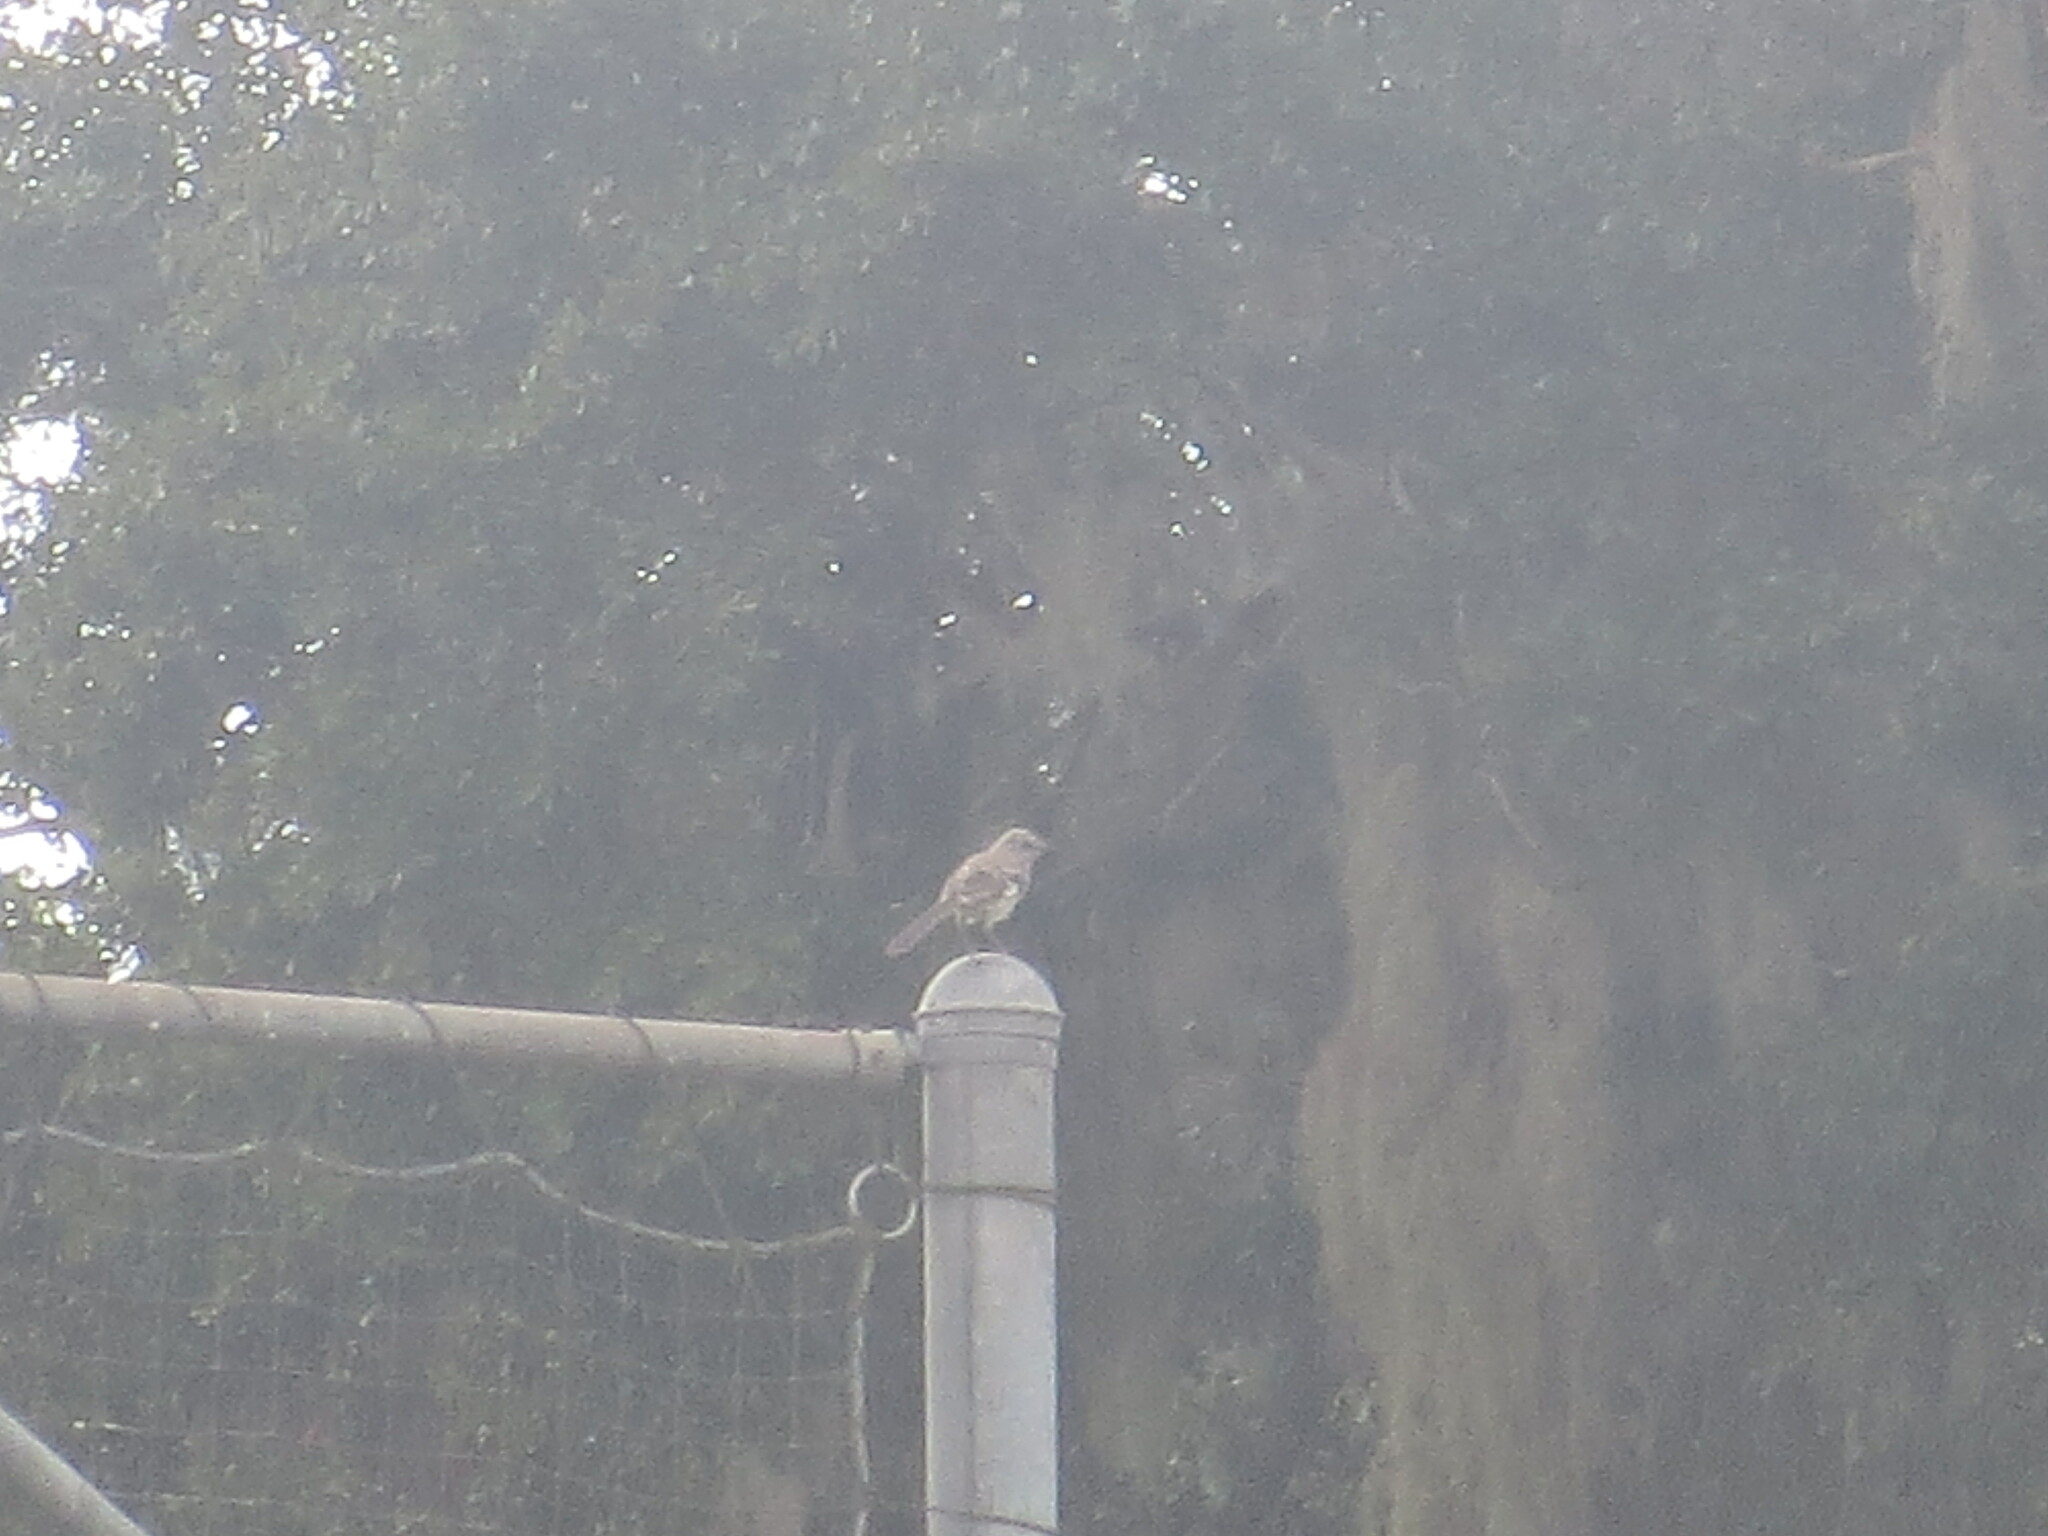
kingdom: Animalia
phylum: Chordata
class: Aves
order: Passeriformes
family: Mimidae
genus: Mimus
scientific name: Mimus polyglottos
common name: Northern mockingbird
